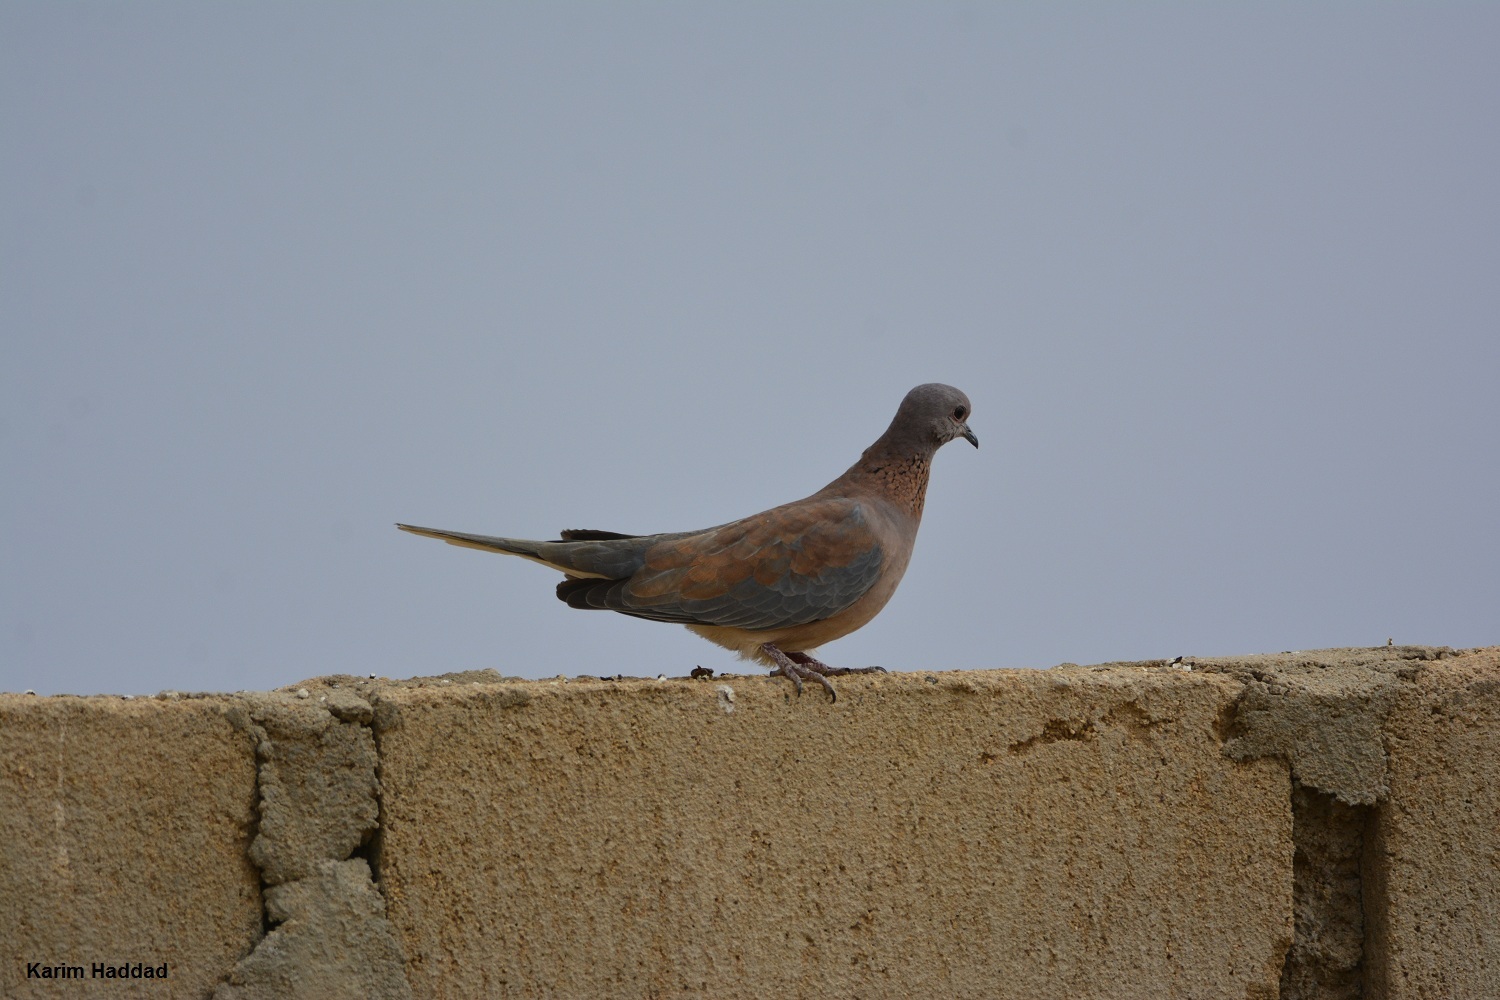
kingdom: Animalia
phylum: Chordata
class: Aves
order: Columbiformes
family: Columbidae
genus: Spilopelia
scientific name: Spilopelia senegalensis
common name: Laughing dove
